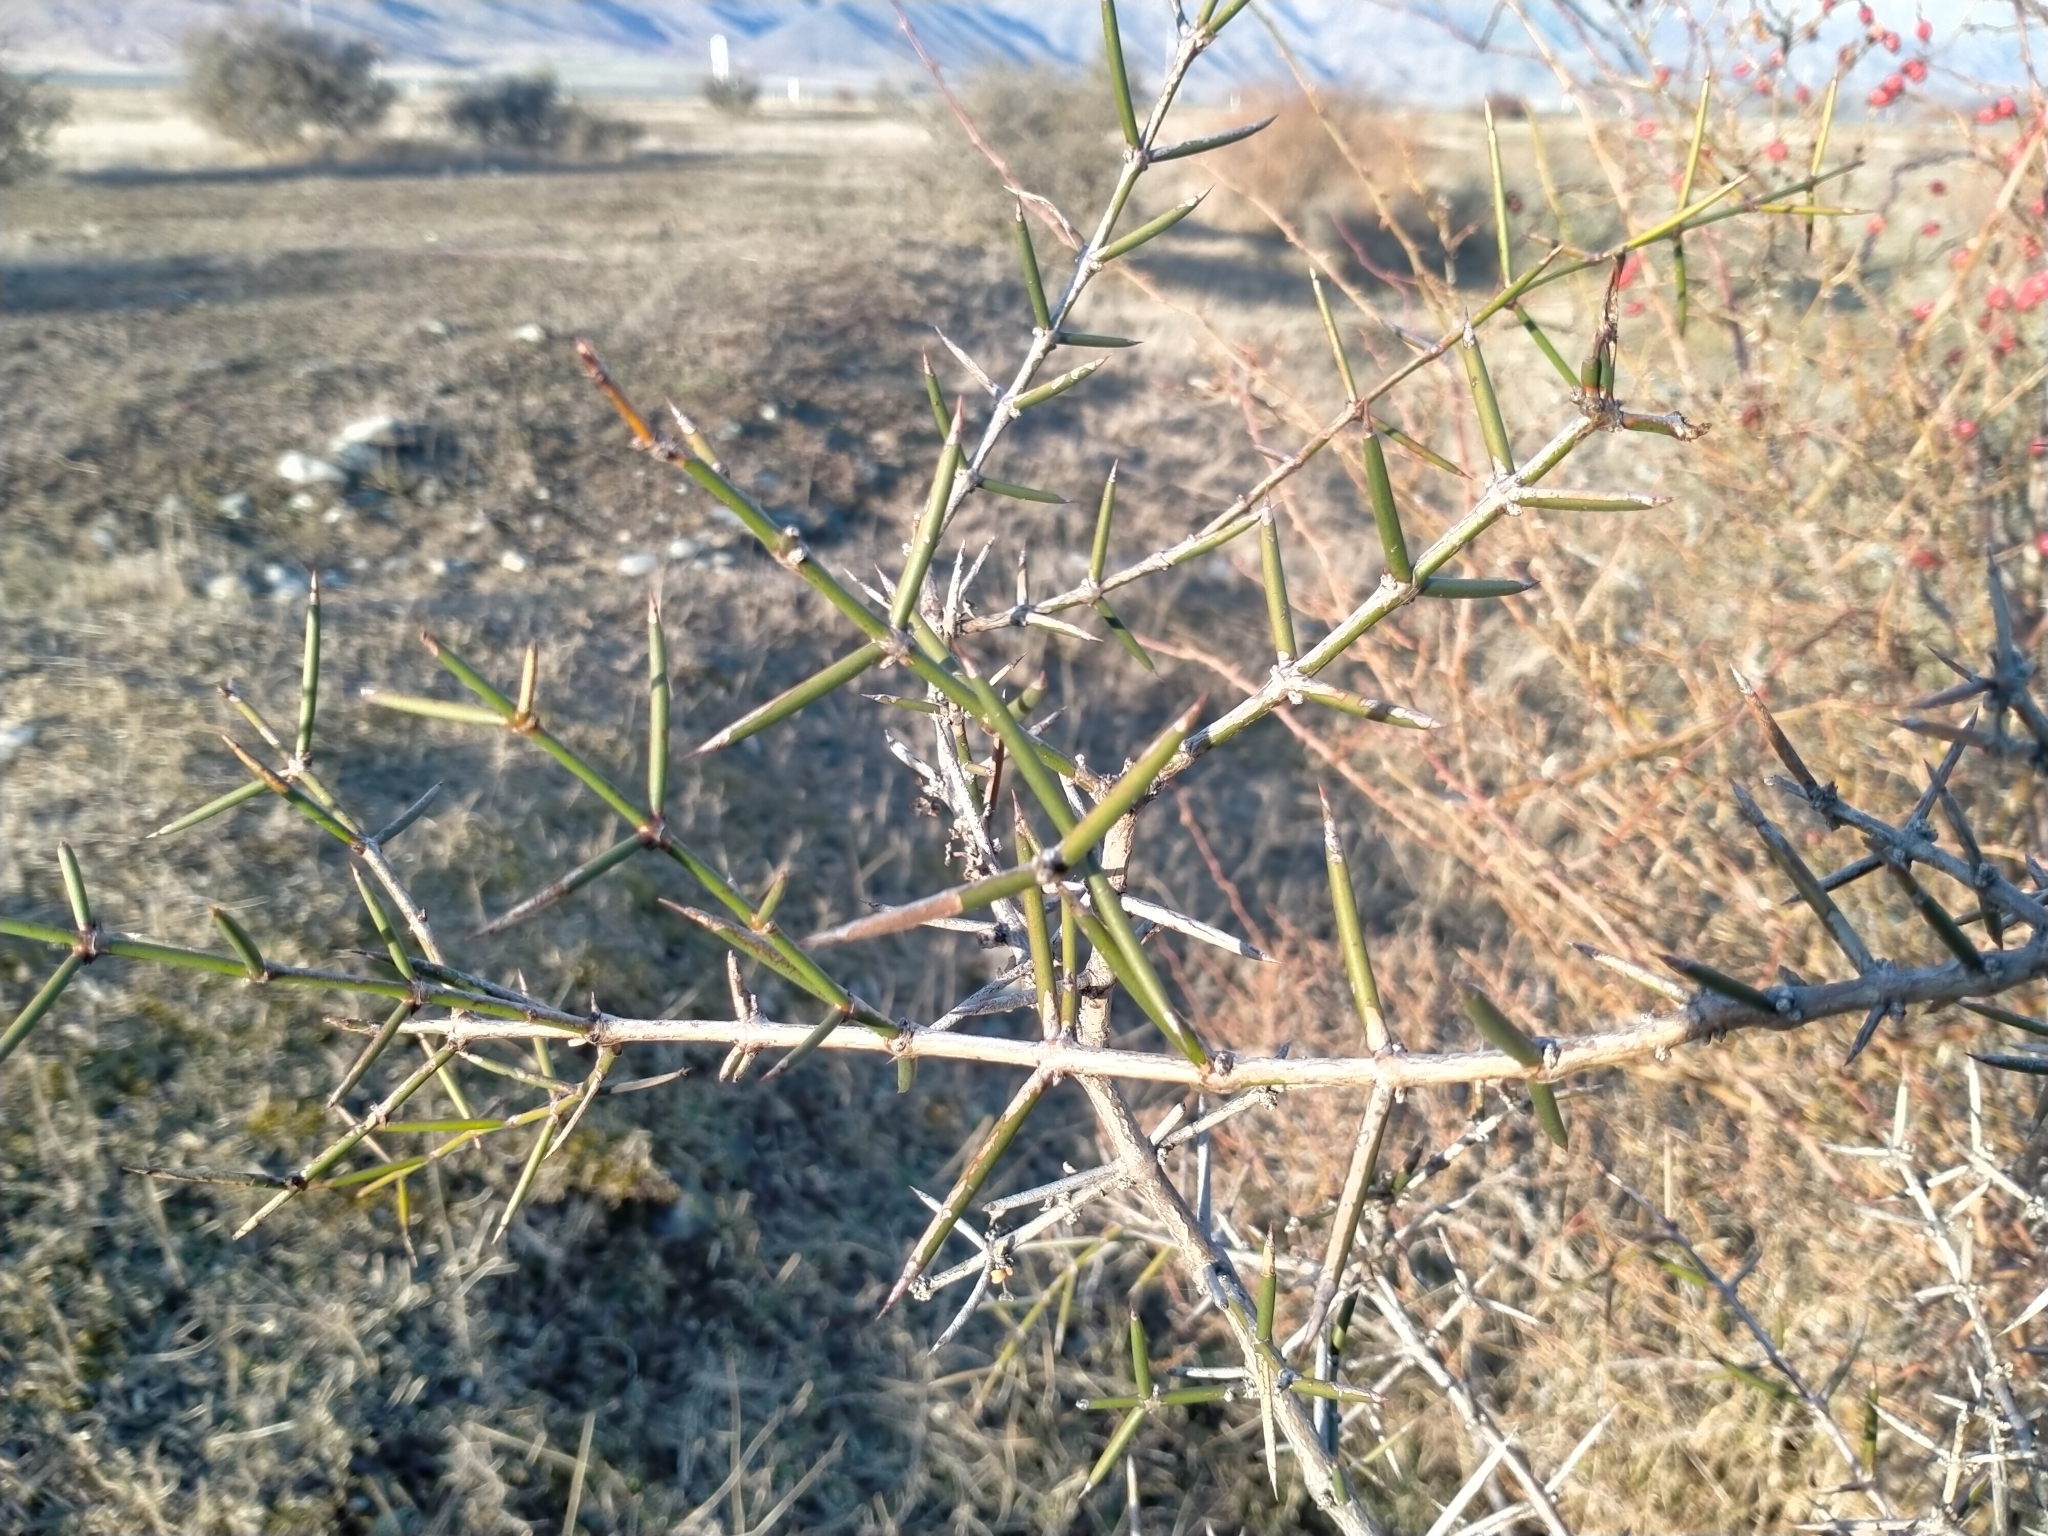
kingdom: Plantae
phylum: Tracheophyta
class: Magnoliopsida
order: Rosales
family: Rhamnaceae
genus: Discaria
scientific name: Discaria toumatou
